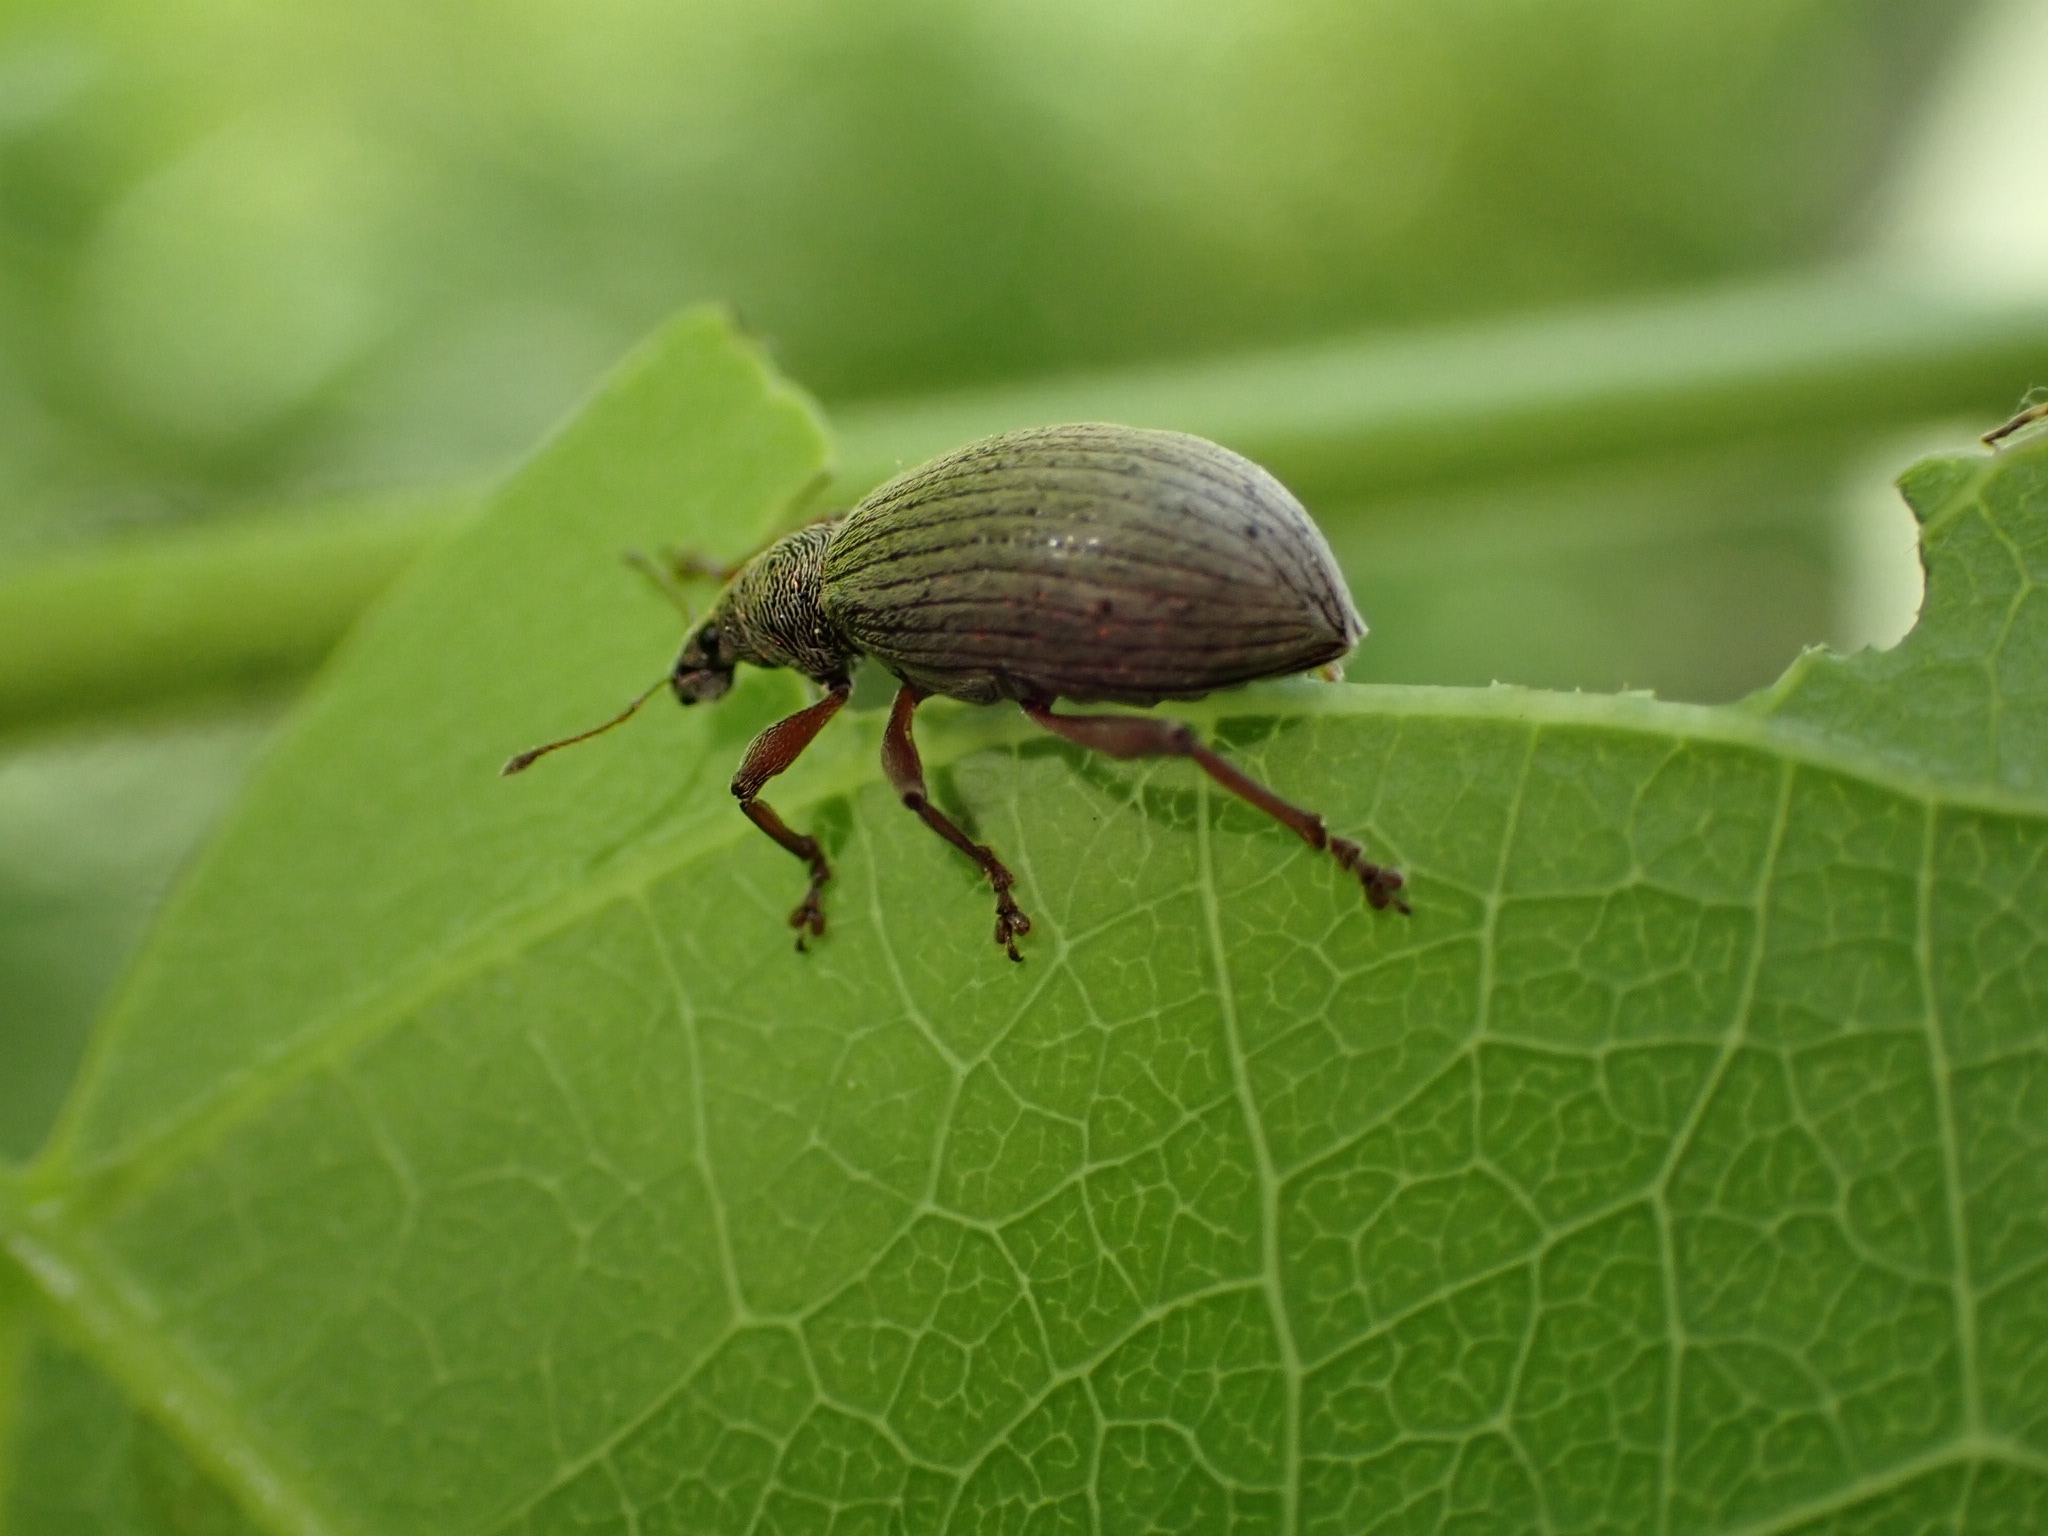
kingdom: Animalia
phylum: Arthropoda
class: Insecta
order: Coleoptera
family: Curculionidae
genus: Polydrusus
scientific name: Polydrusus mollis
